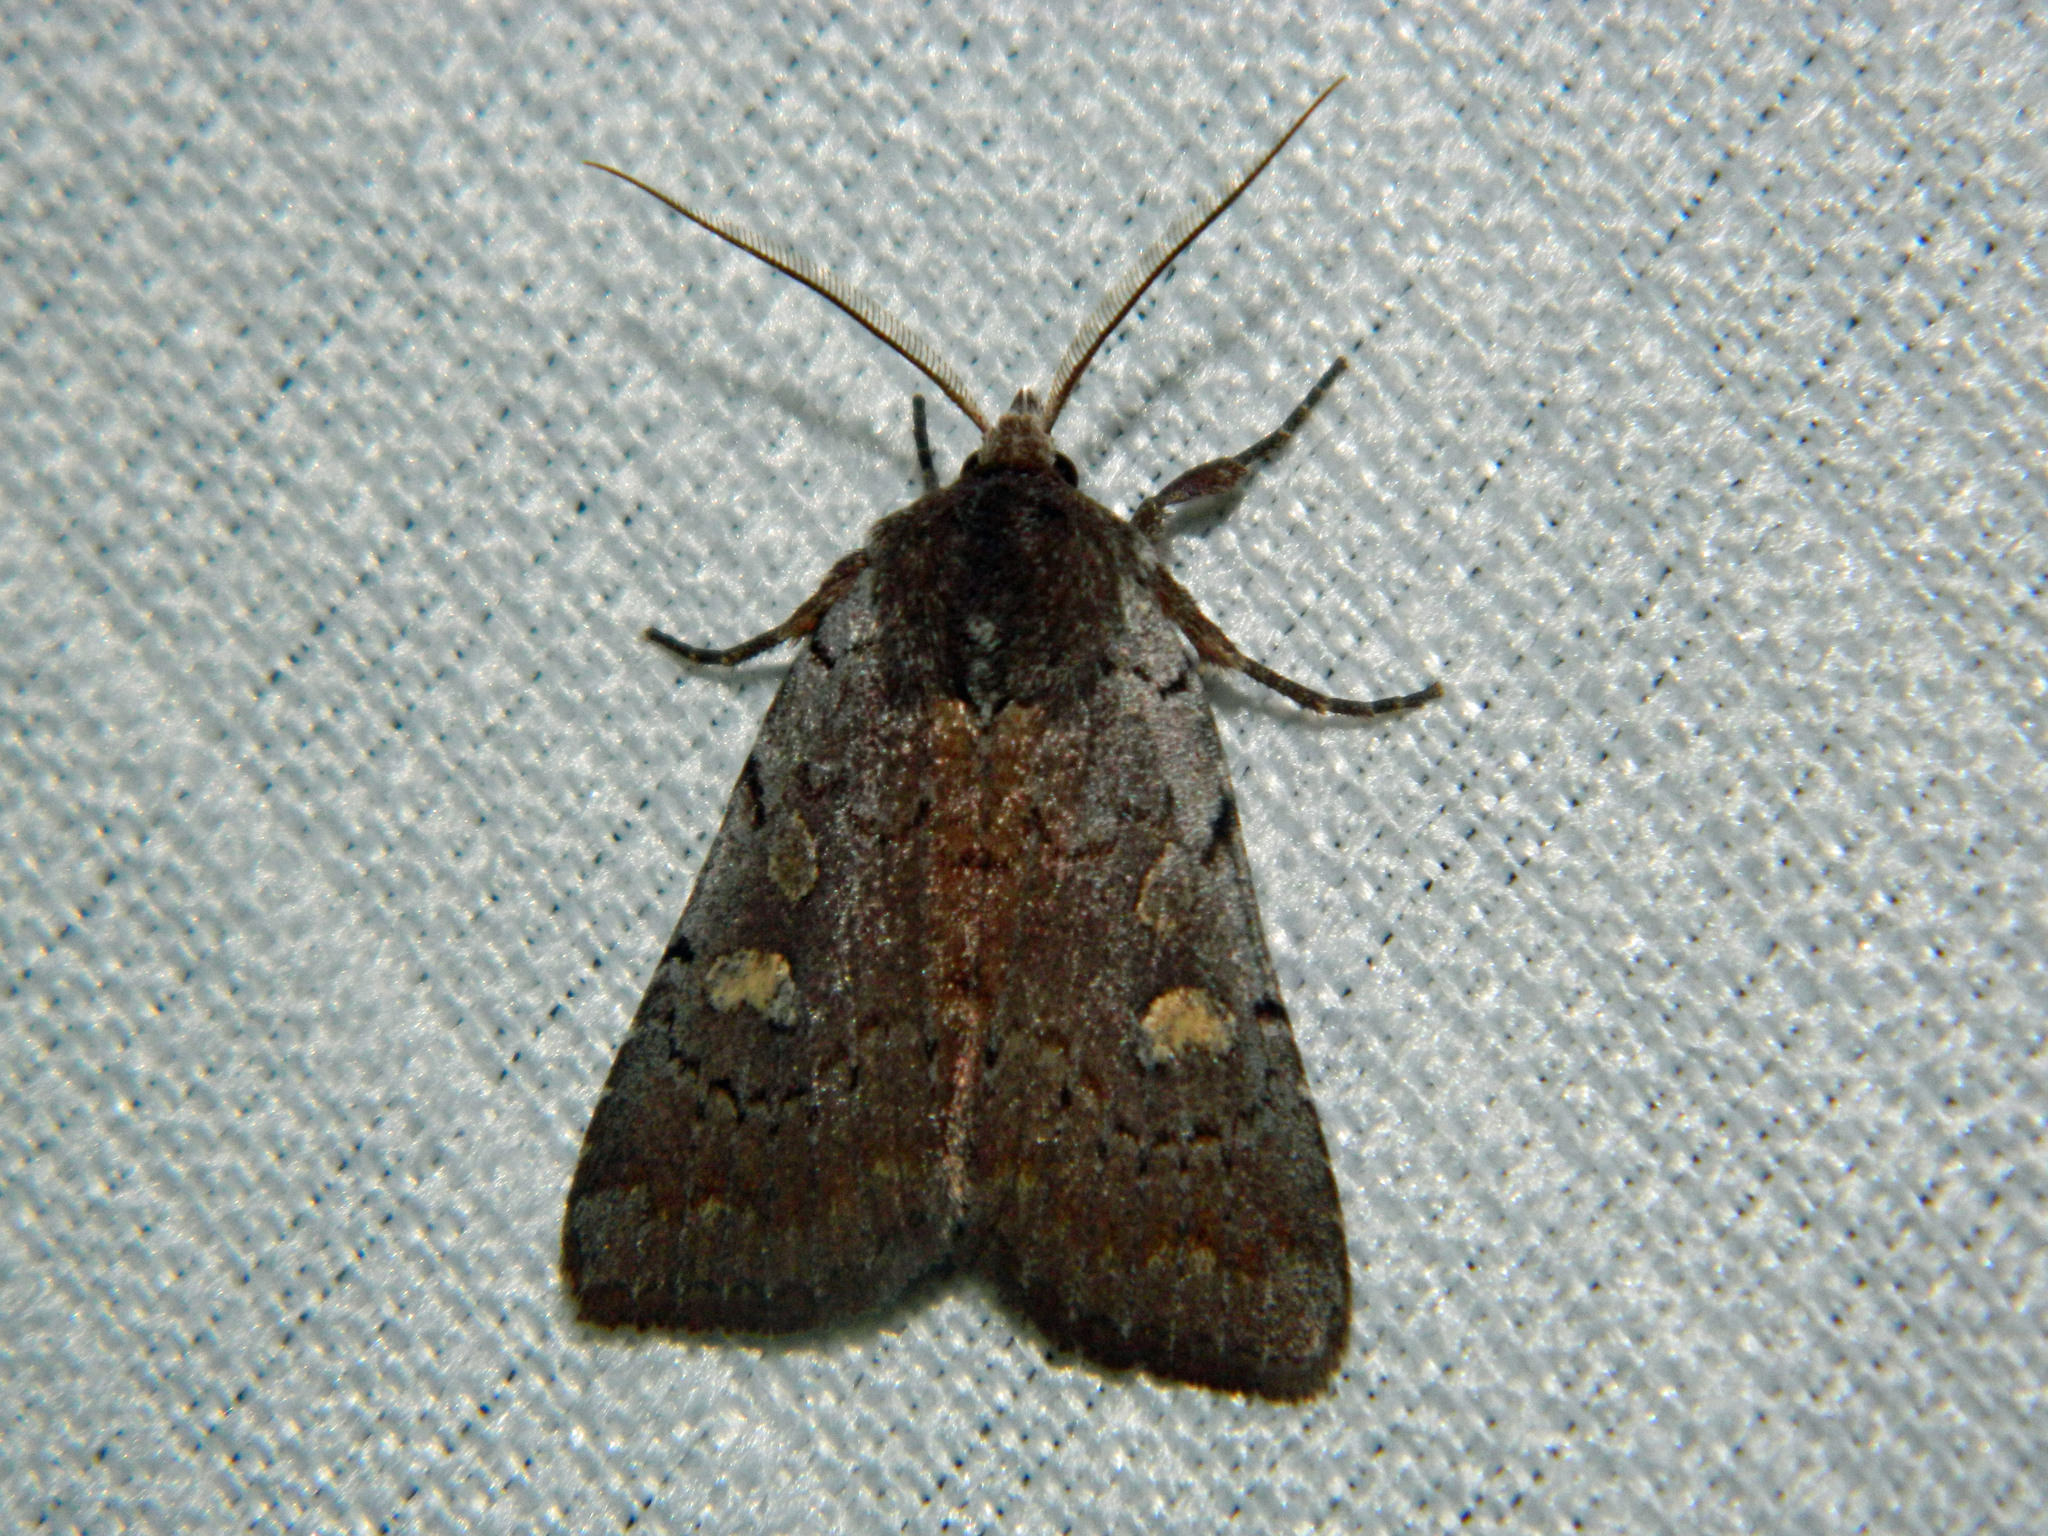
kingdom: Animalia
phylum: Arthropoda
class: Insecta
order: Lepidoptera
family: Noctuidae
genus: Xestia
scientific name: Xestia dilucida
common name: Dull reddish dart
